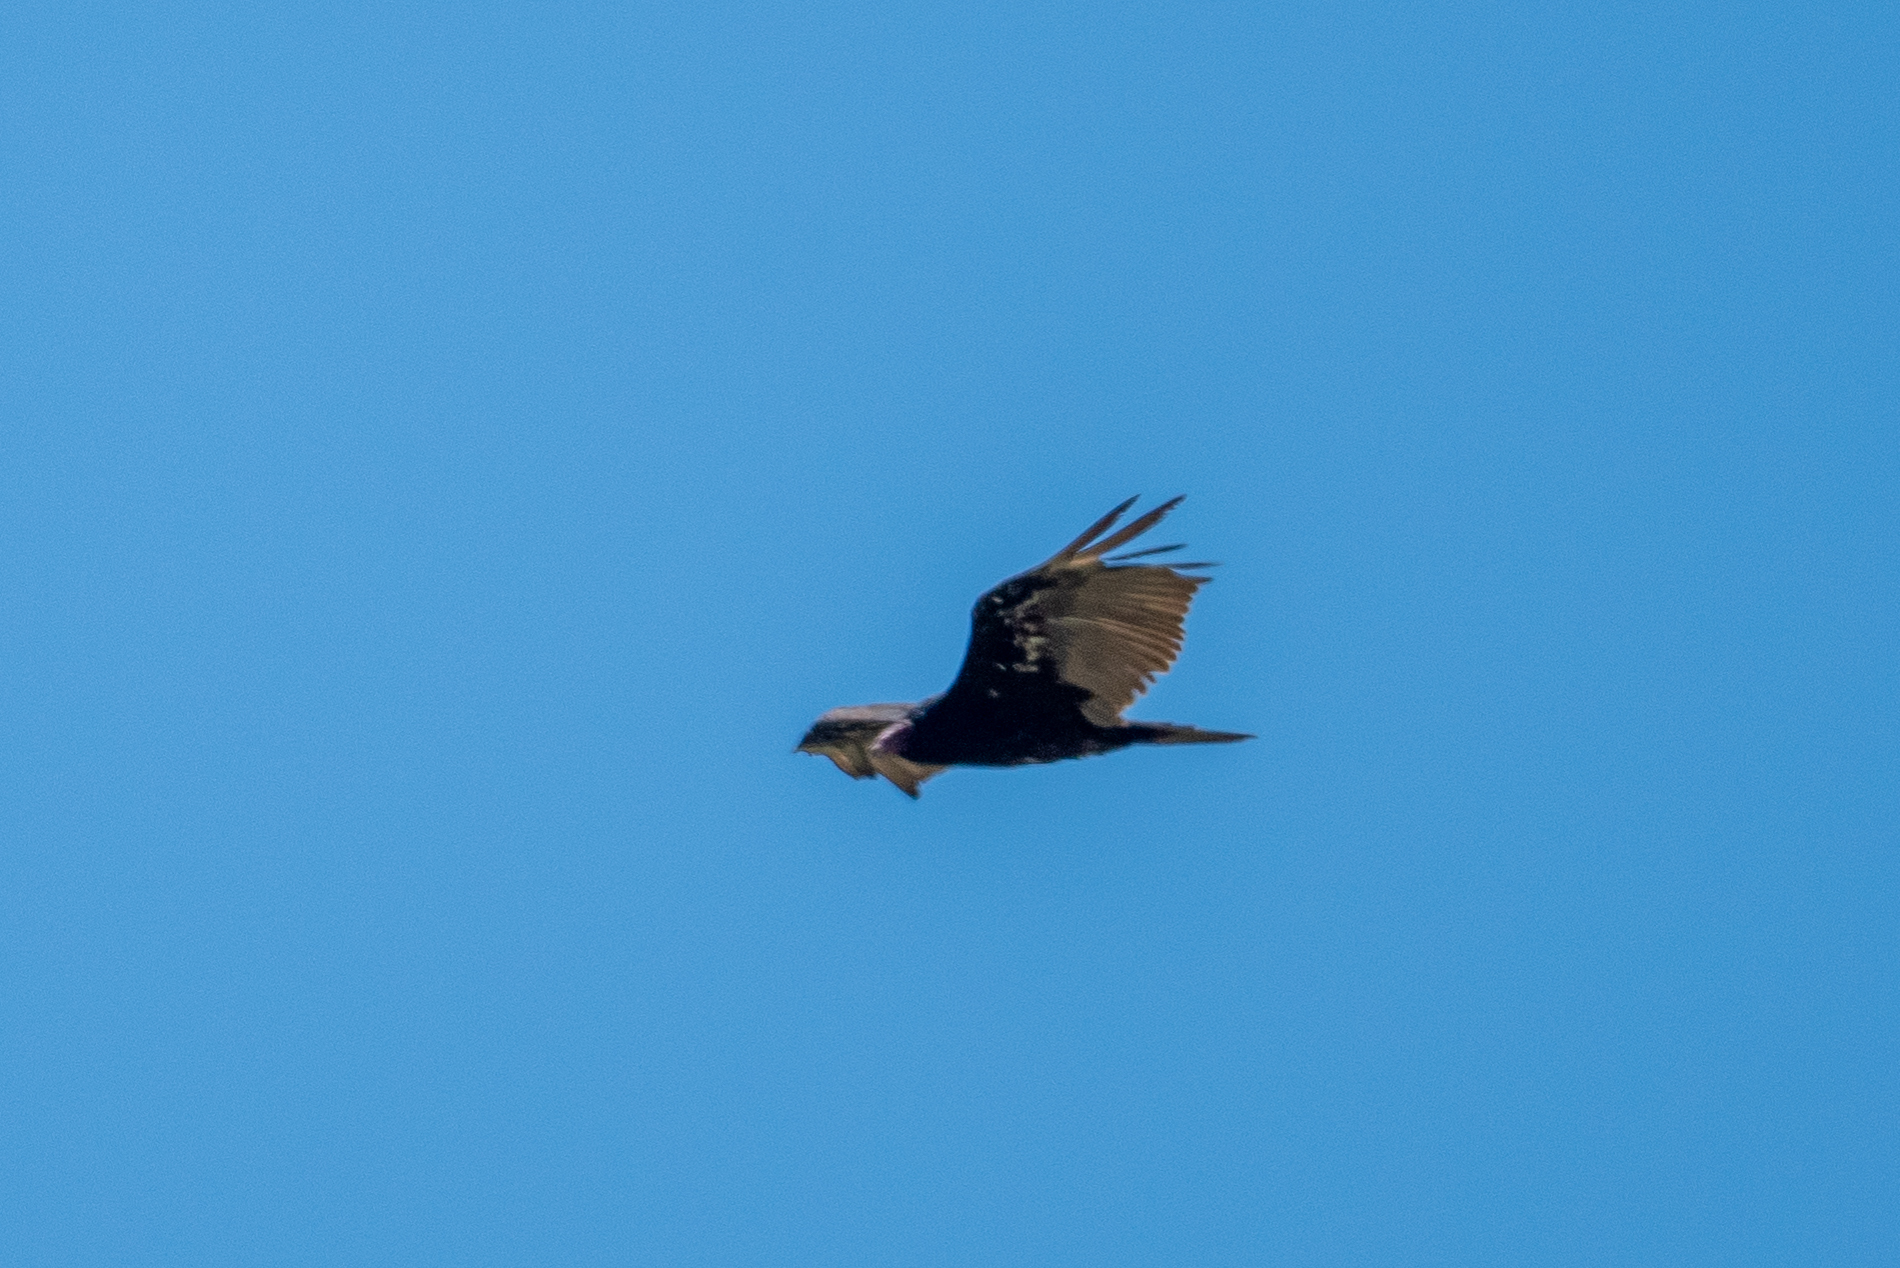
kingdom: Animalia
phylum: Chordata
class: Aves
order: Accipitriformes
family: Cathartidae
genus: Cathartes
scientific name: Cathartes aura
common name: Turkey vulture
